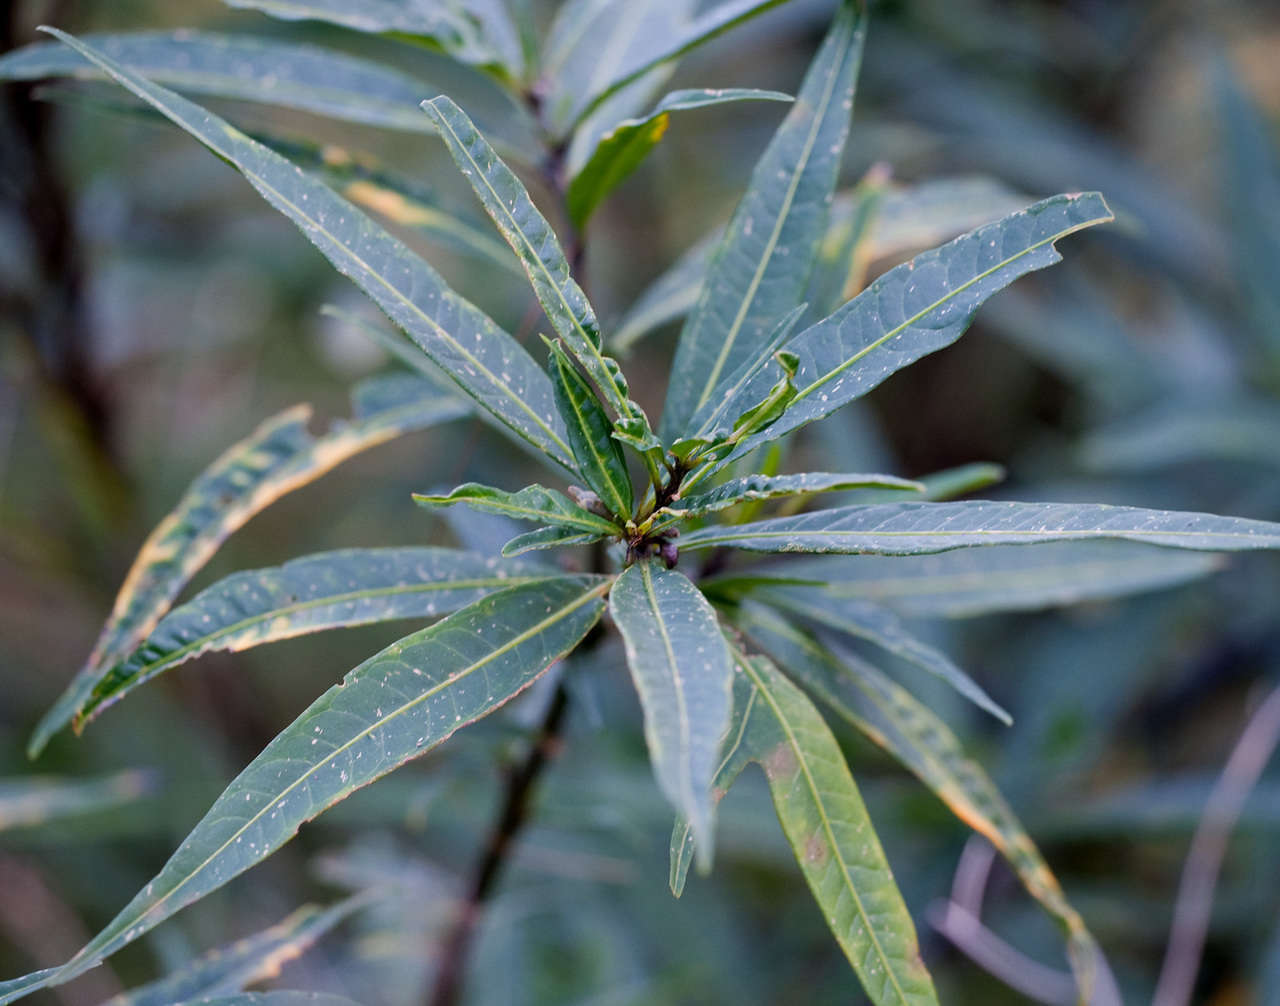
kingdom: Plantae
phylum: Tracheophyta
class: Magnoliopsida
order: Solanales
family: Solanaceae
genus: Solanum
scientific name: Solanum laciniatum
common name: Kangaroo-apple
